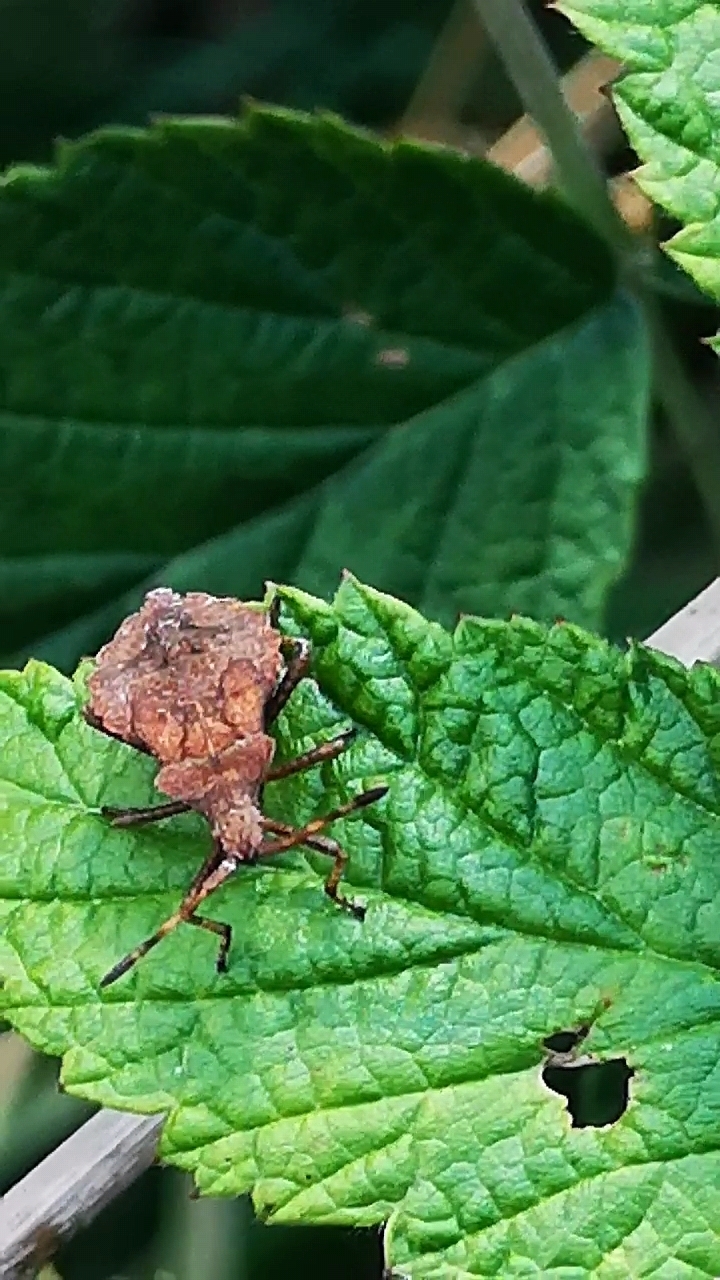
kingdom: Animalia
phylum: Arthropoda
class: Insecta
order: Hemiptera
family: Coreidae
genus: Coreus
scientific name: Coreus marginatus
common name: Dock bug
